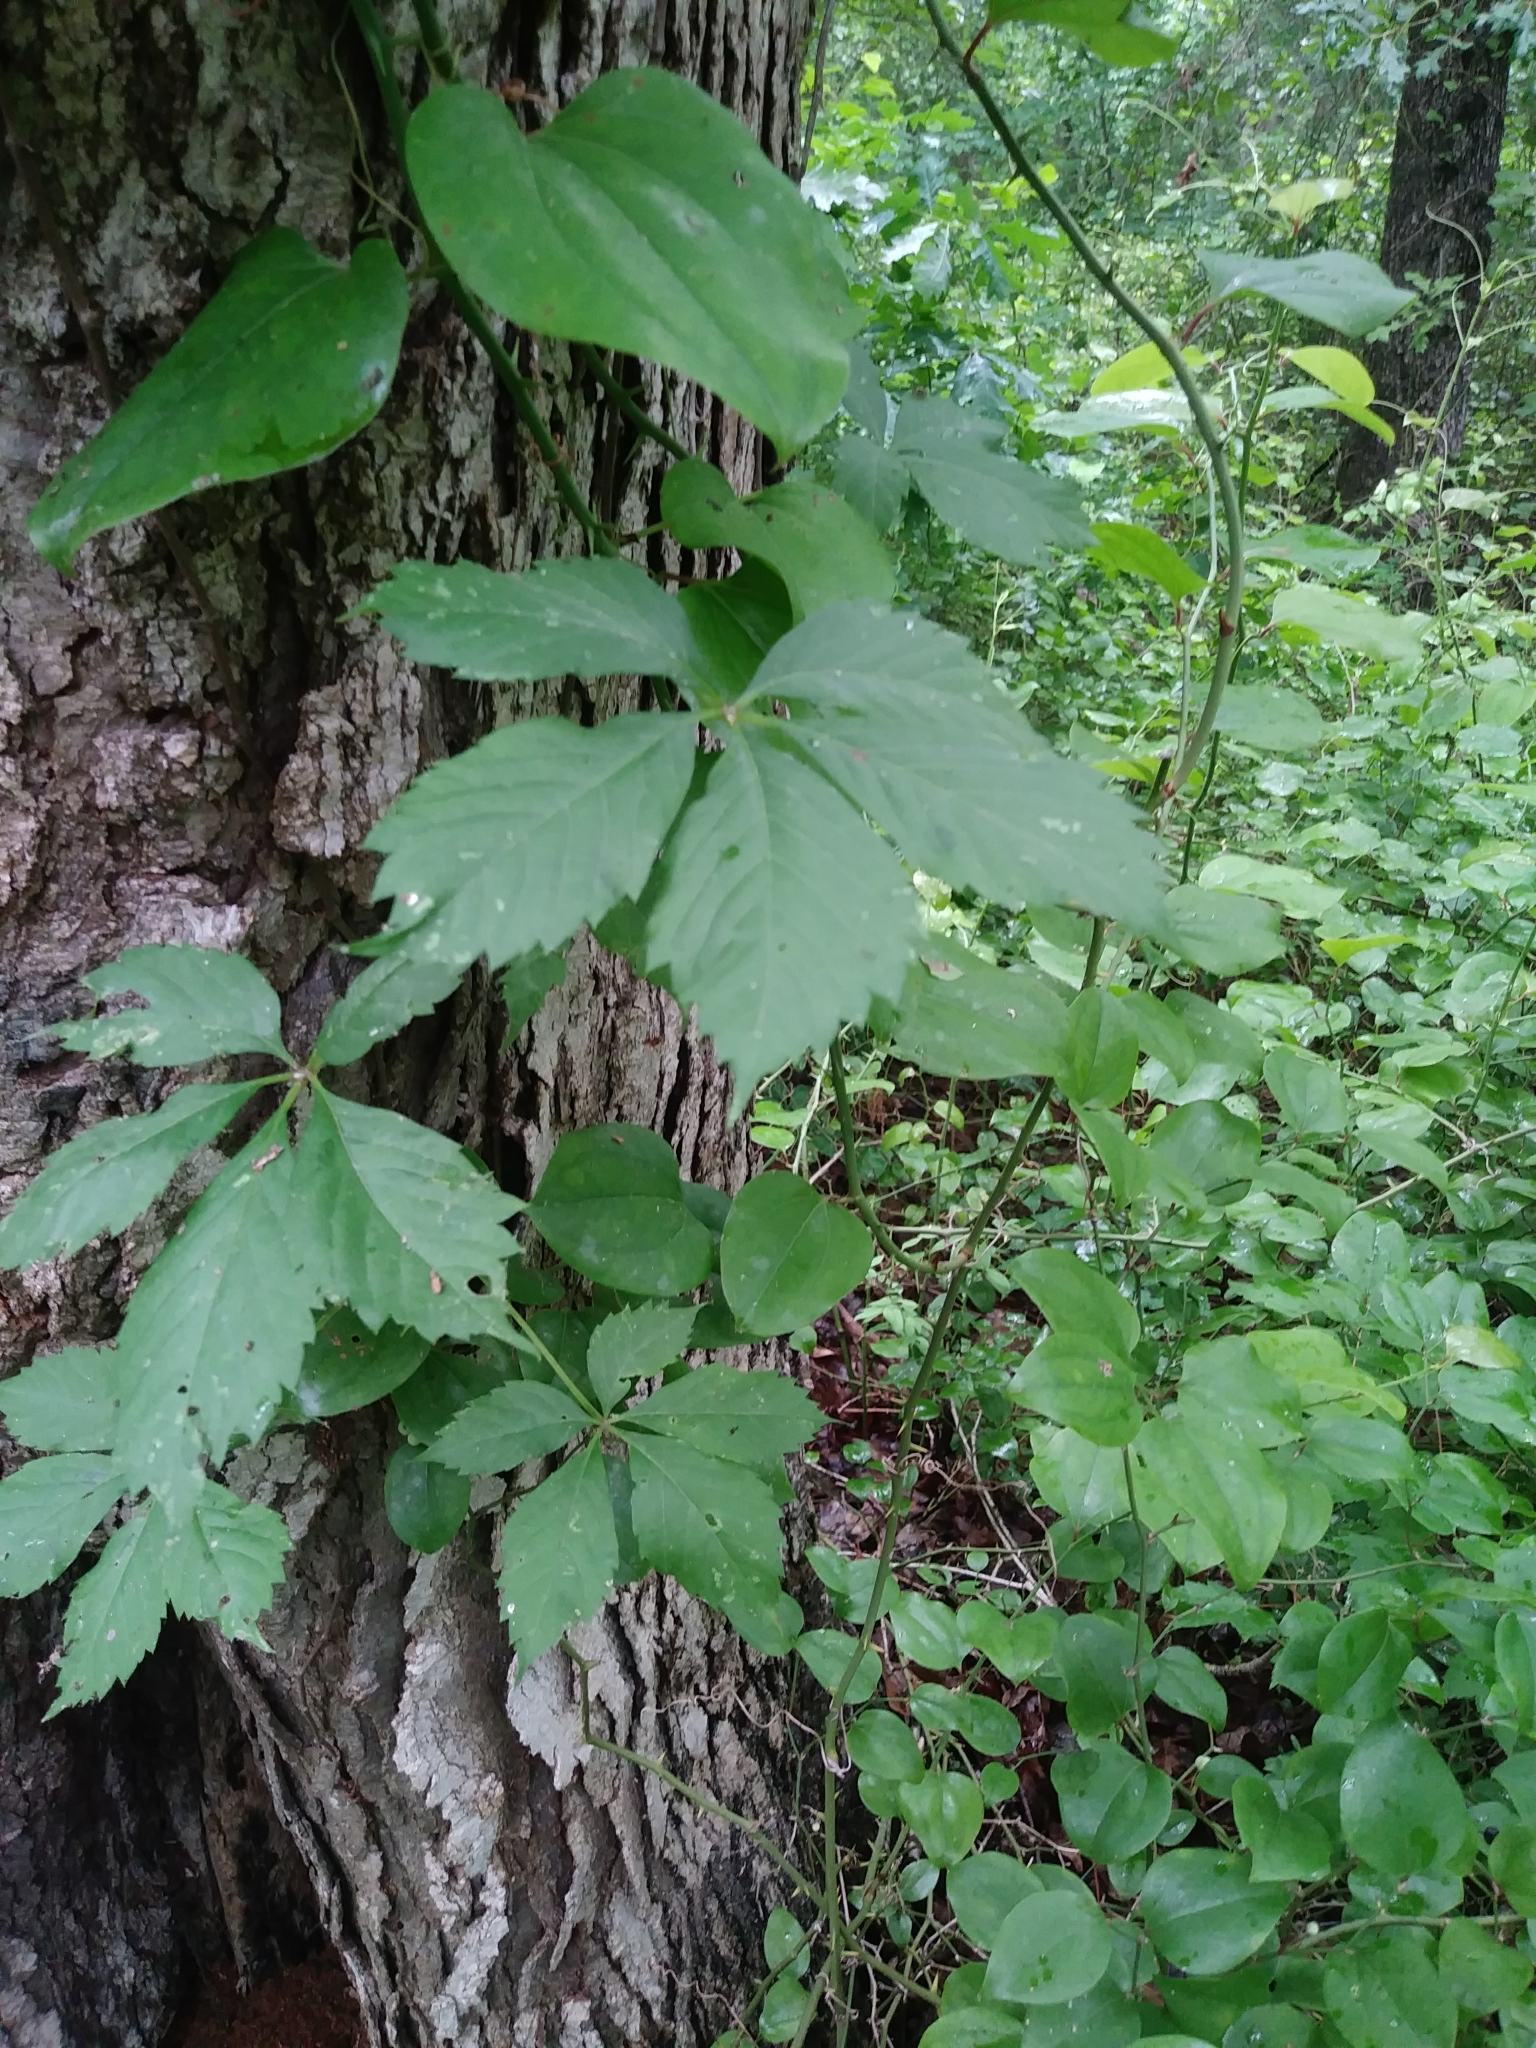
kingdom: Plantae
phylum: Tracheophyta
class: Magnoliopsida
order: Vitales
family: Vitaceae
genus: Parthenocissus
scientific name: Parthenocissus quinquefolia
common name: Virginia-creeper
